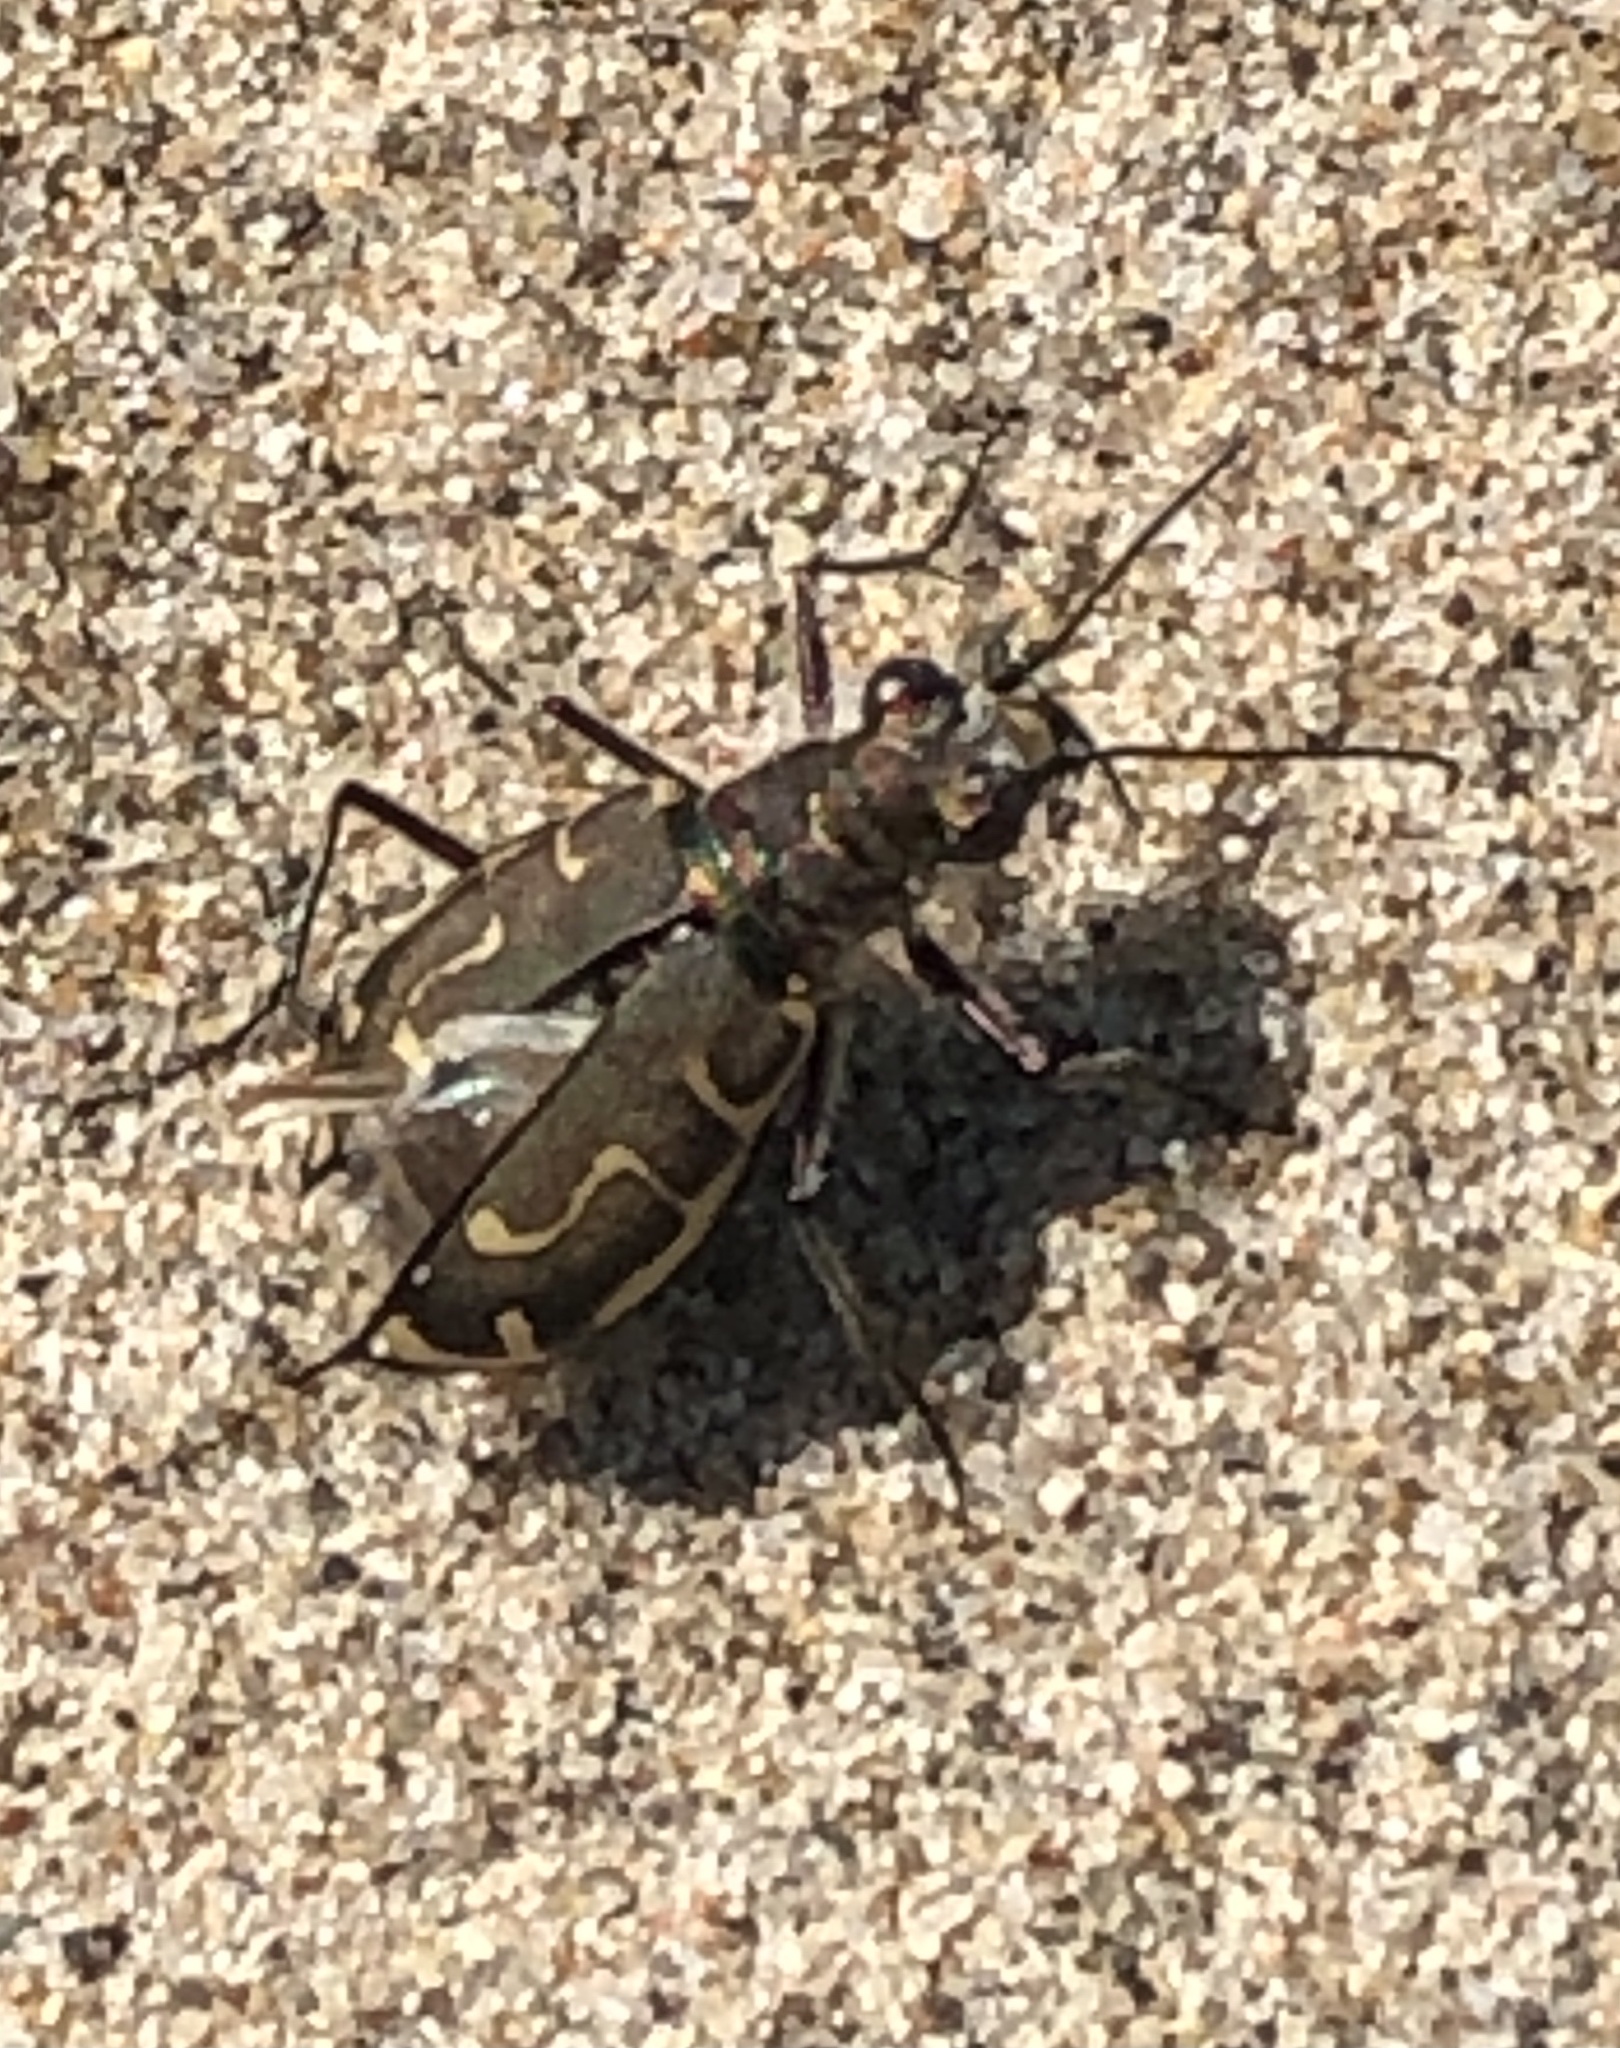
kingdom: Animalia
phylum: Arthropoda
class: Insecta
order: Coleoptera
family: Carabidae
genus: Cicindela
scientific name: Cicindela hirticollis
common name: Hairy-necked tiger beetle
